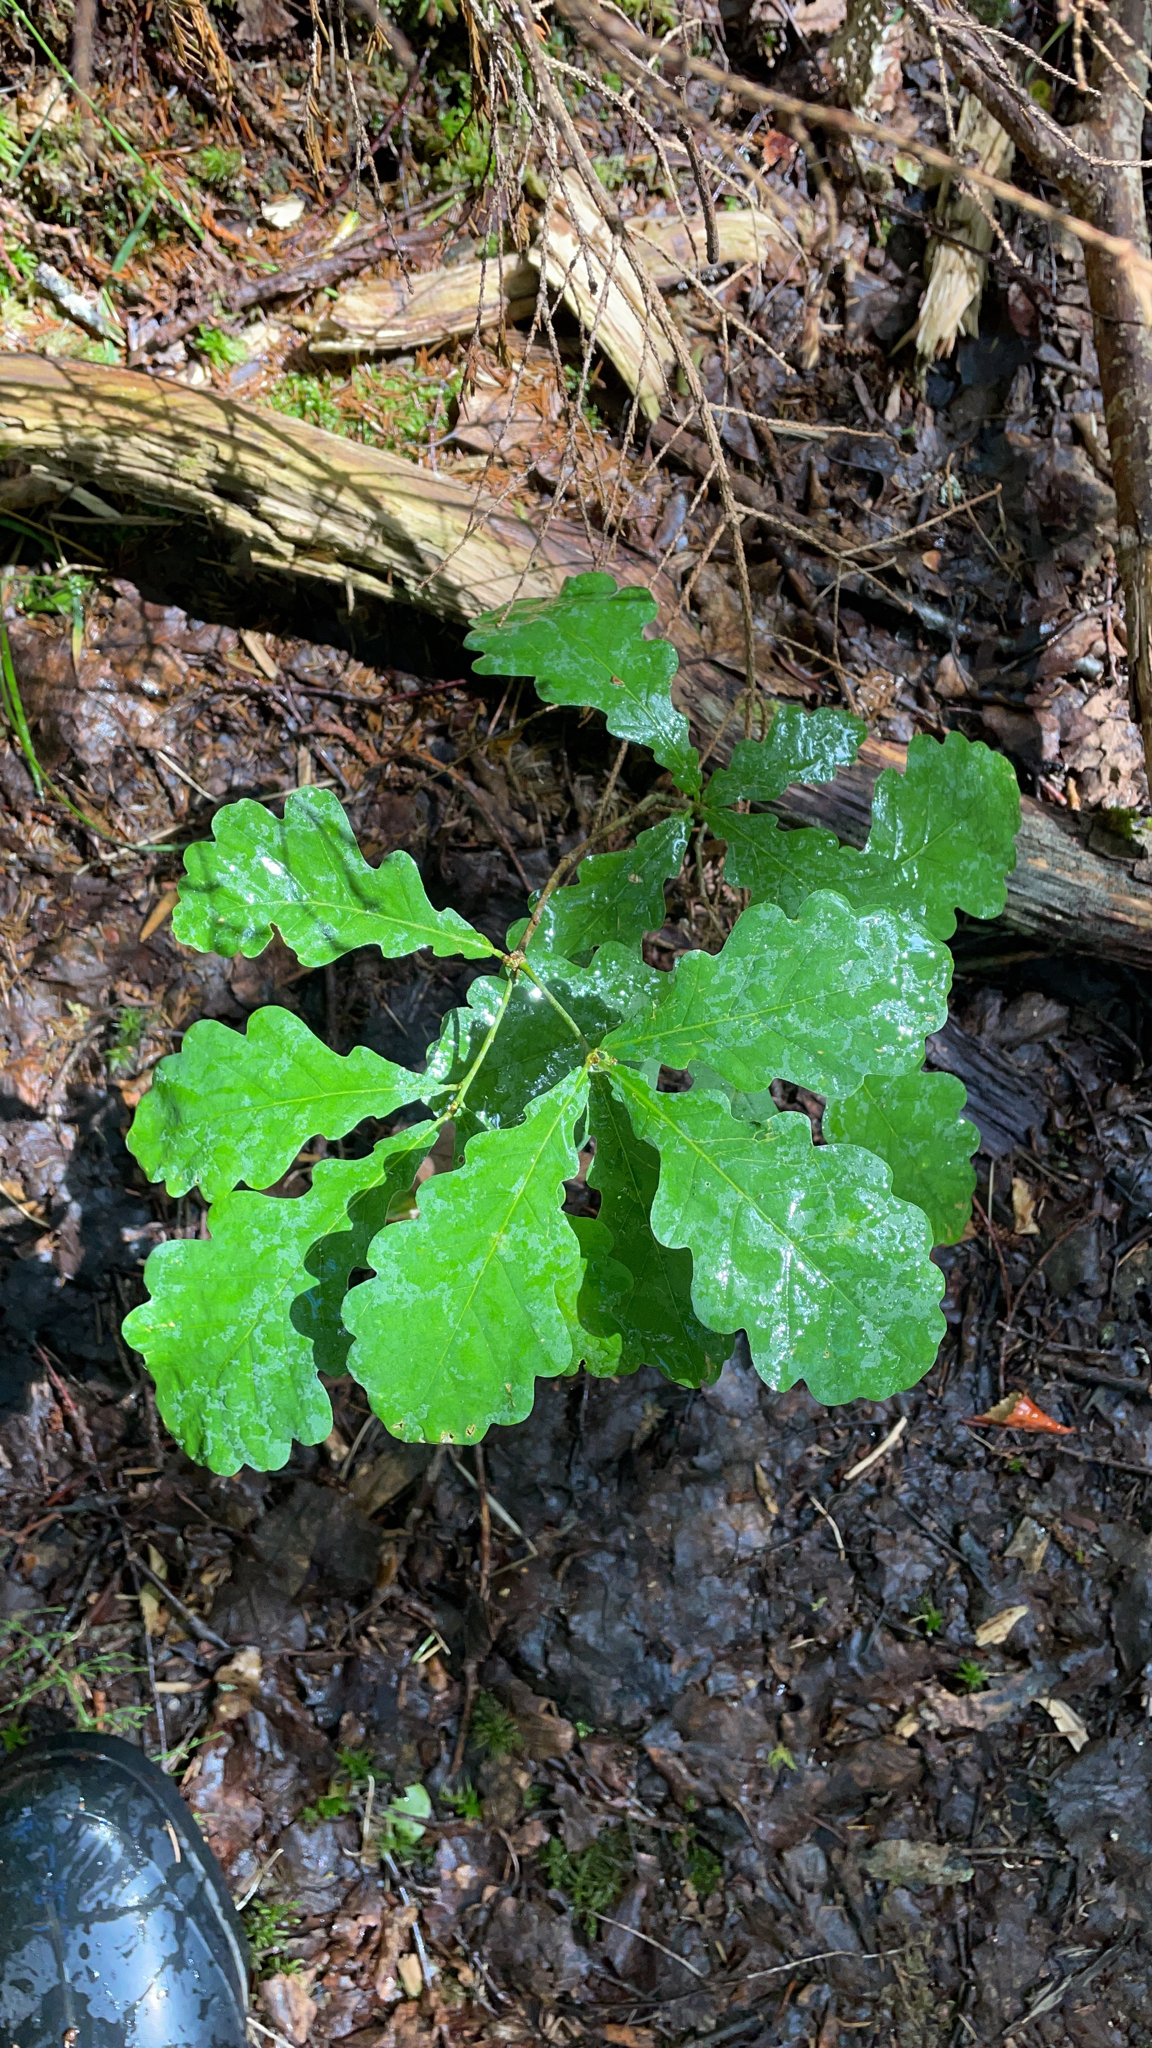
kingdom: Plantae
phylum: Tracheophyta
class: Magnoliopsida
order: Fagales
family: Fagaceae
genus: Quercus
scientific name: Quercus robur
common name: Pedunculate oak
